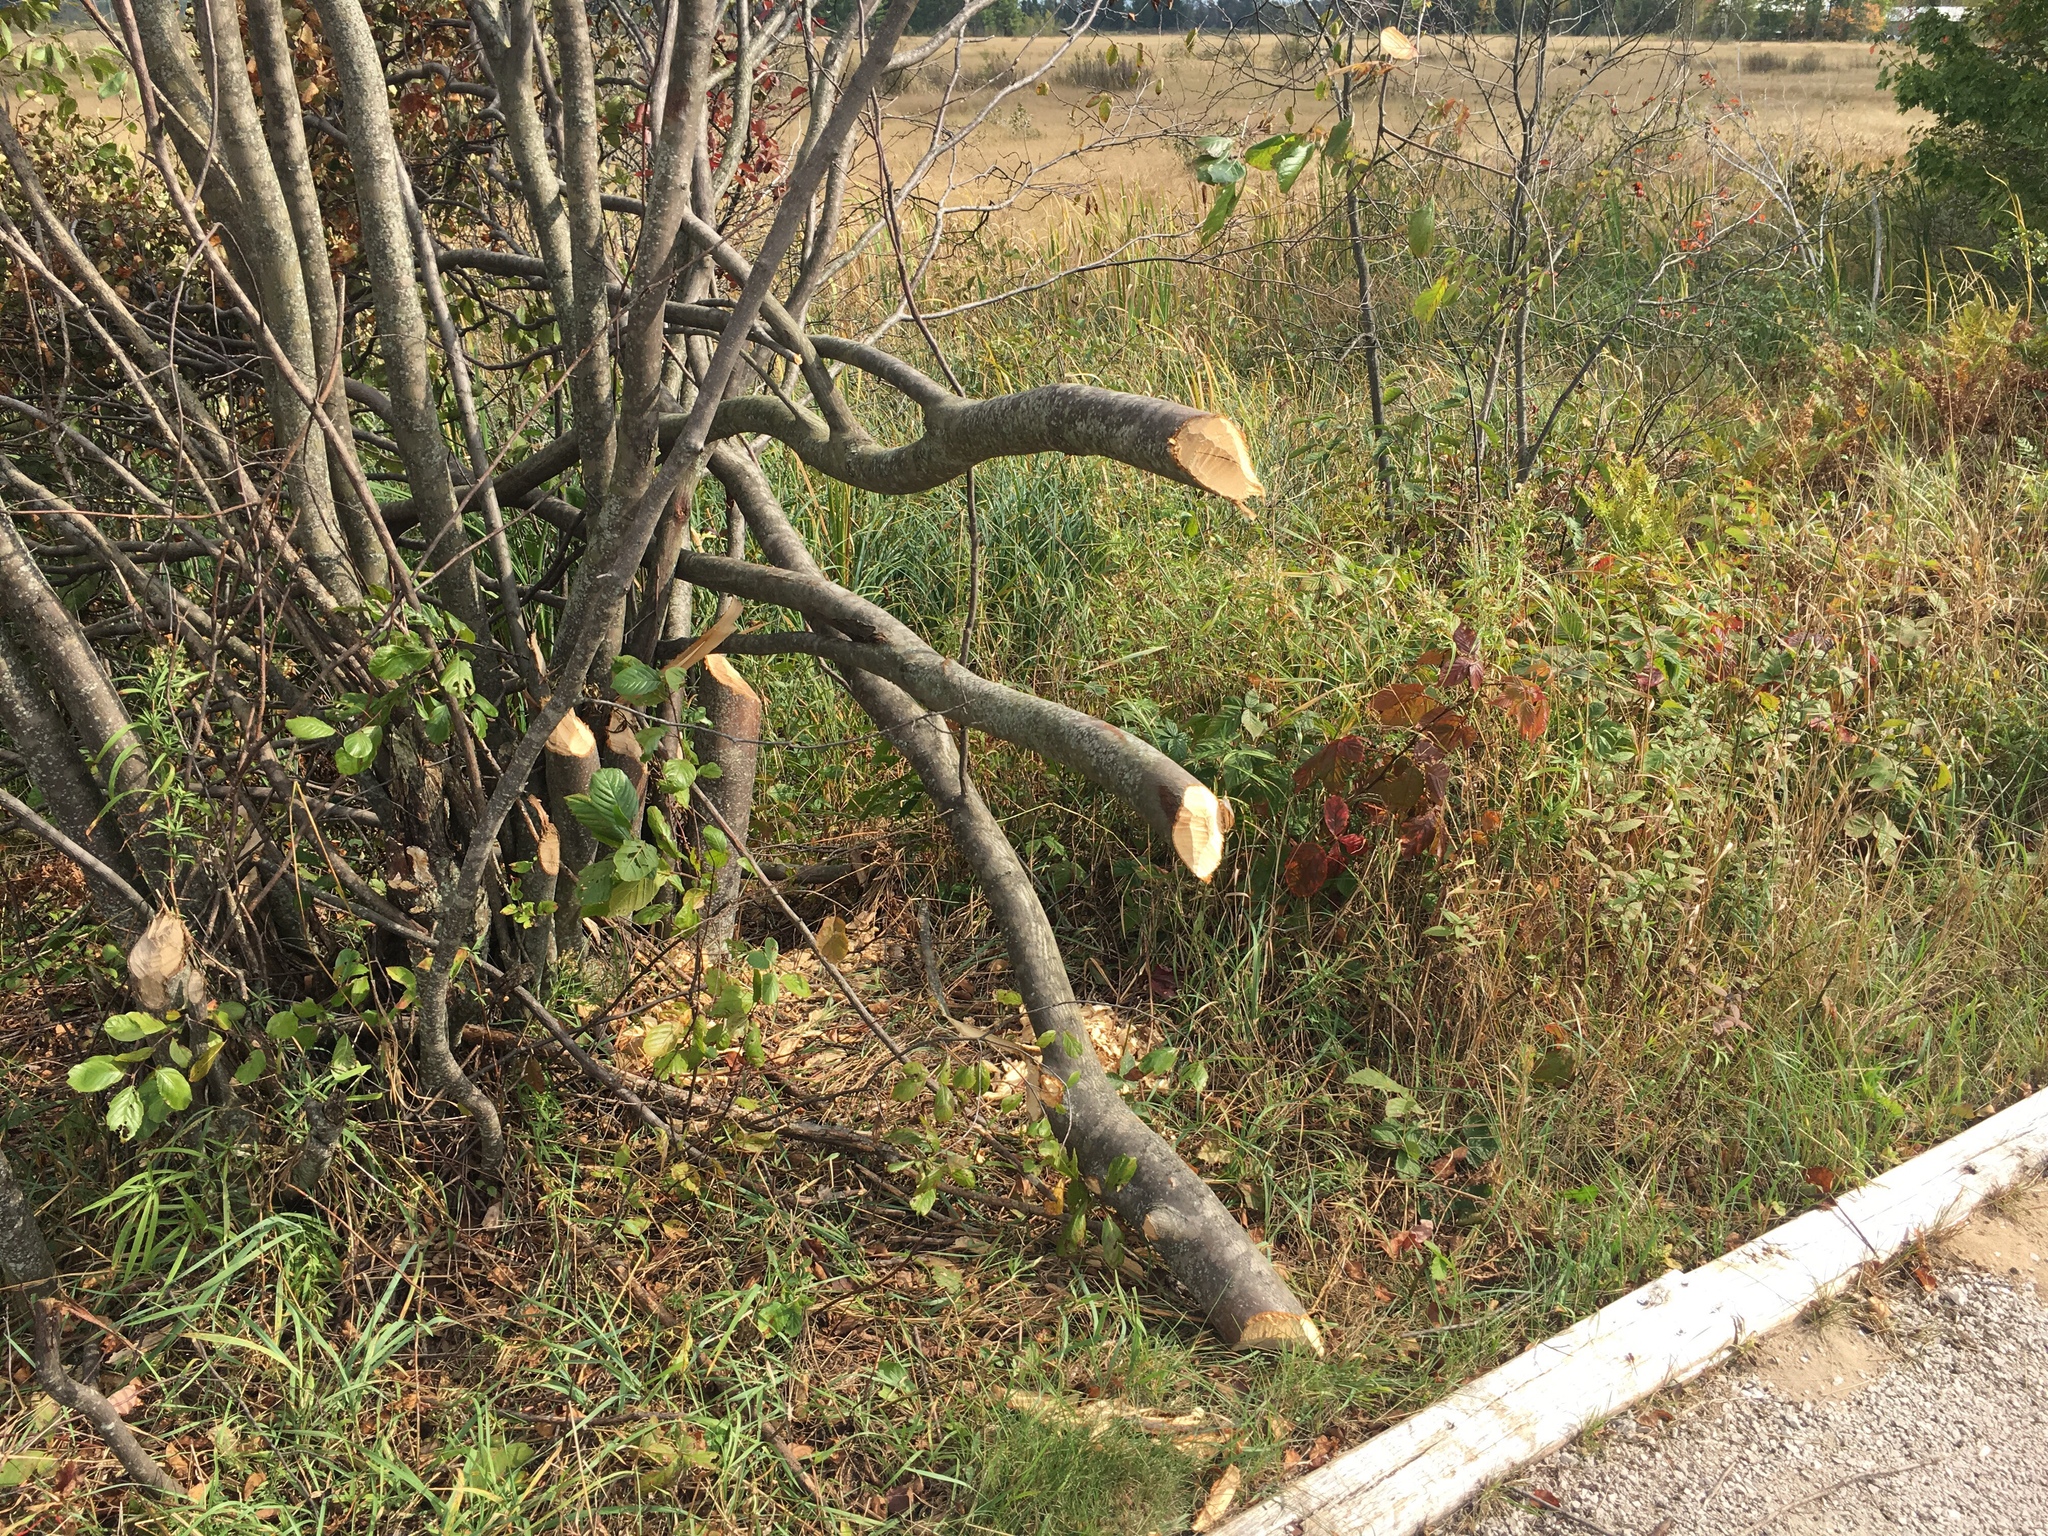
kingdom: Animalia
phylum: Chordata
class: Mammalia
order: Rodentia
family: Castoridae
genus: Castor
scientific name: Castor canadensis
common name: American beaver
